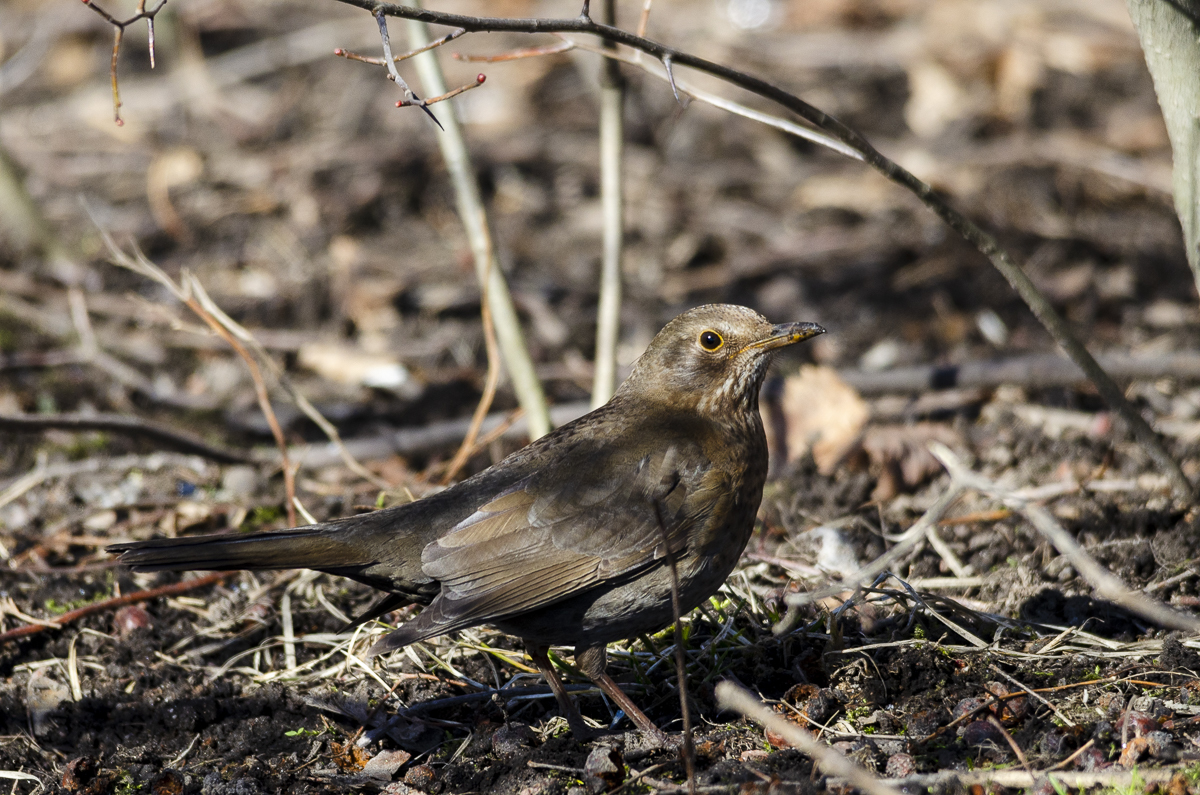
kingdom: Animalia
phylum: Chordata
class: Aves
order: Passeriformes
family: Turdidae
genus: Turdus
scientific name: Turdus merula
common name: Common blackbird
